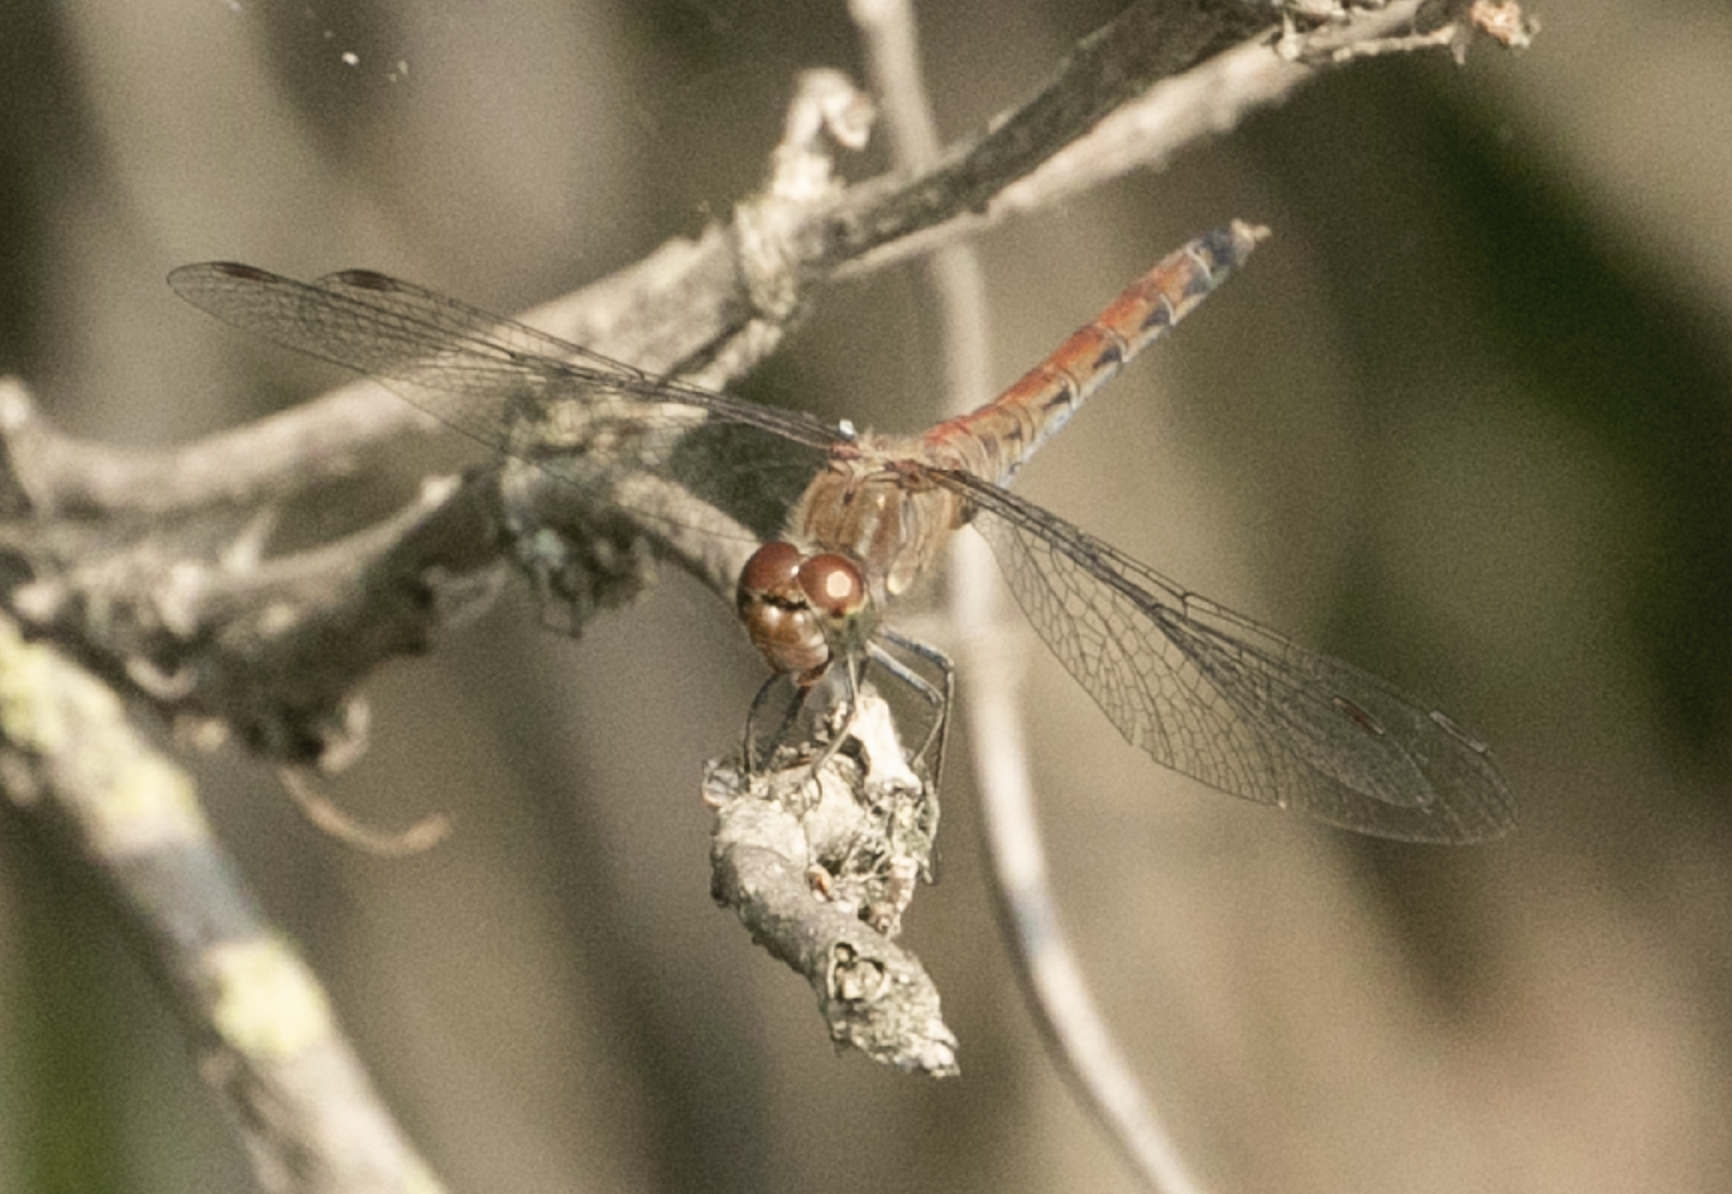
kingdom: Animalia
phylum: Arthropoda
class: Insecta
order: Odonata
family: Libellulidae
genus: Sympetrum
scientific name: Sympetrum striolatum
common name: Common darter
